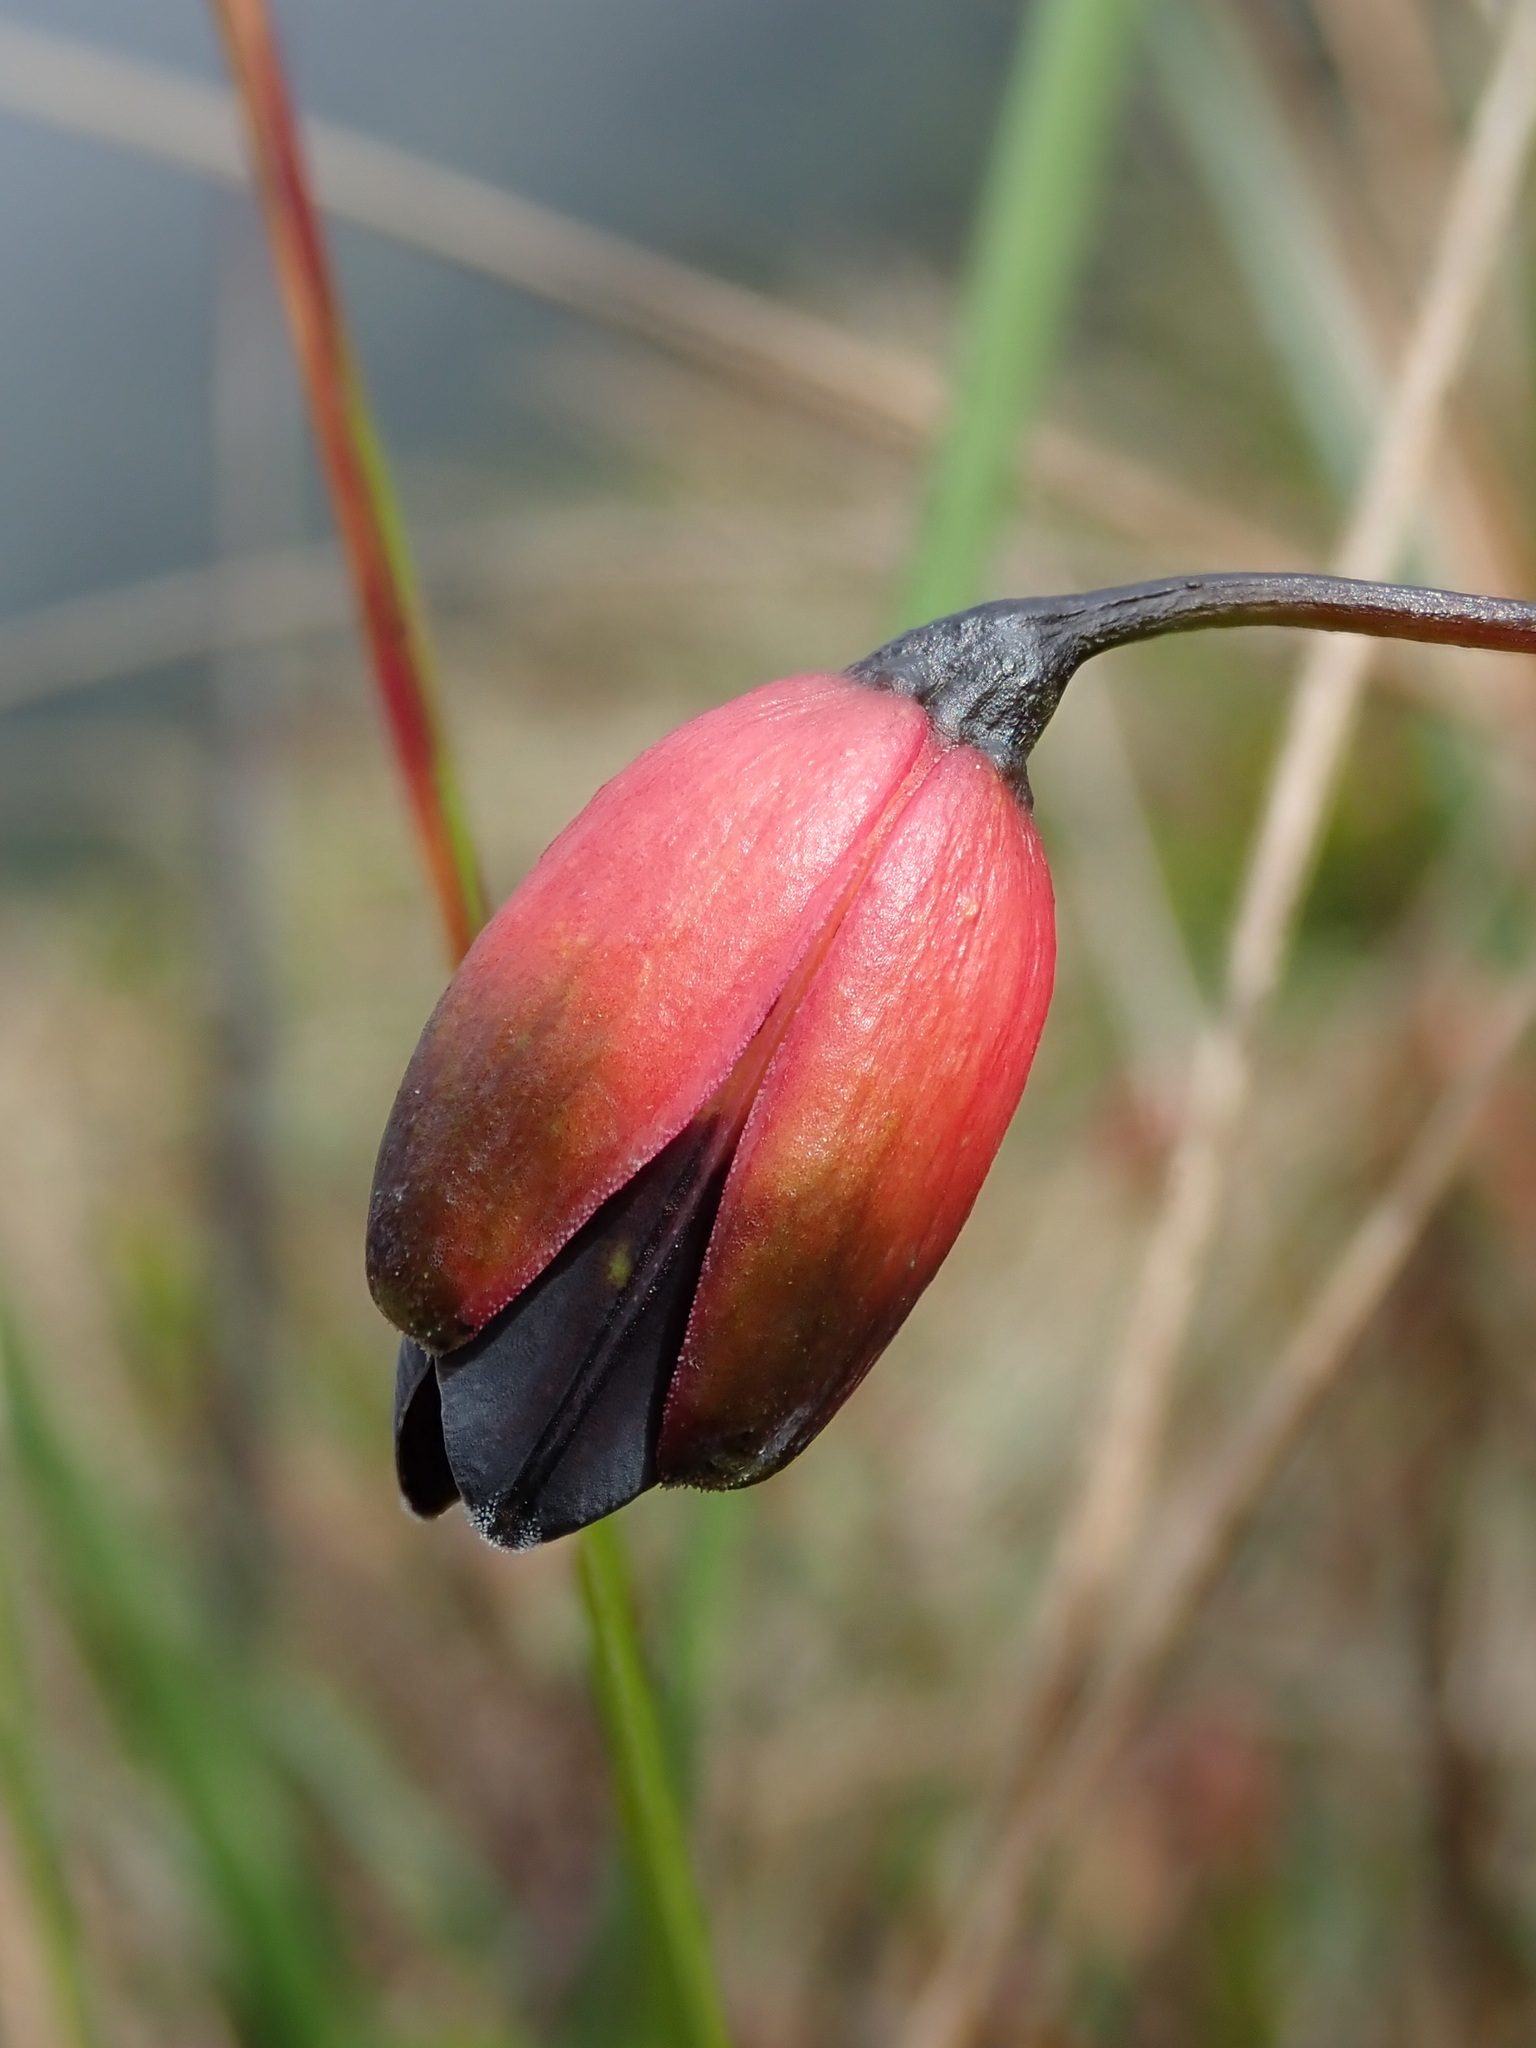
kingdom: Plantae
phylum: Tracheophyta
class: Liliopsida
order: Liliales
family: Alstroemeriaceae
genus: Bomarea
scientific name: Bomarea brachysepala
